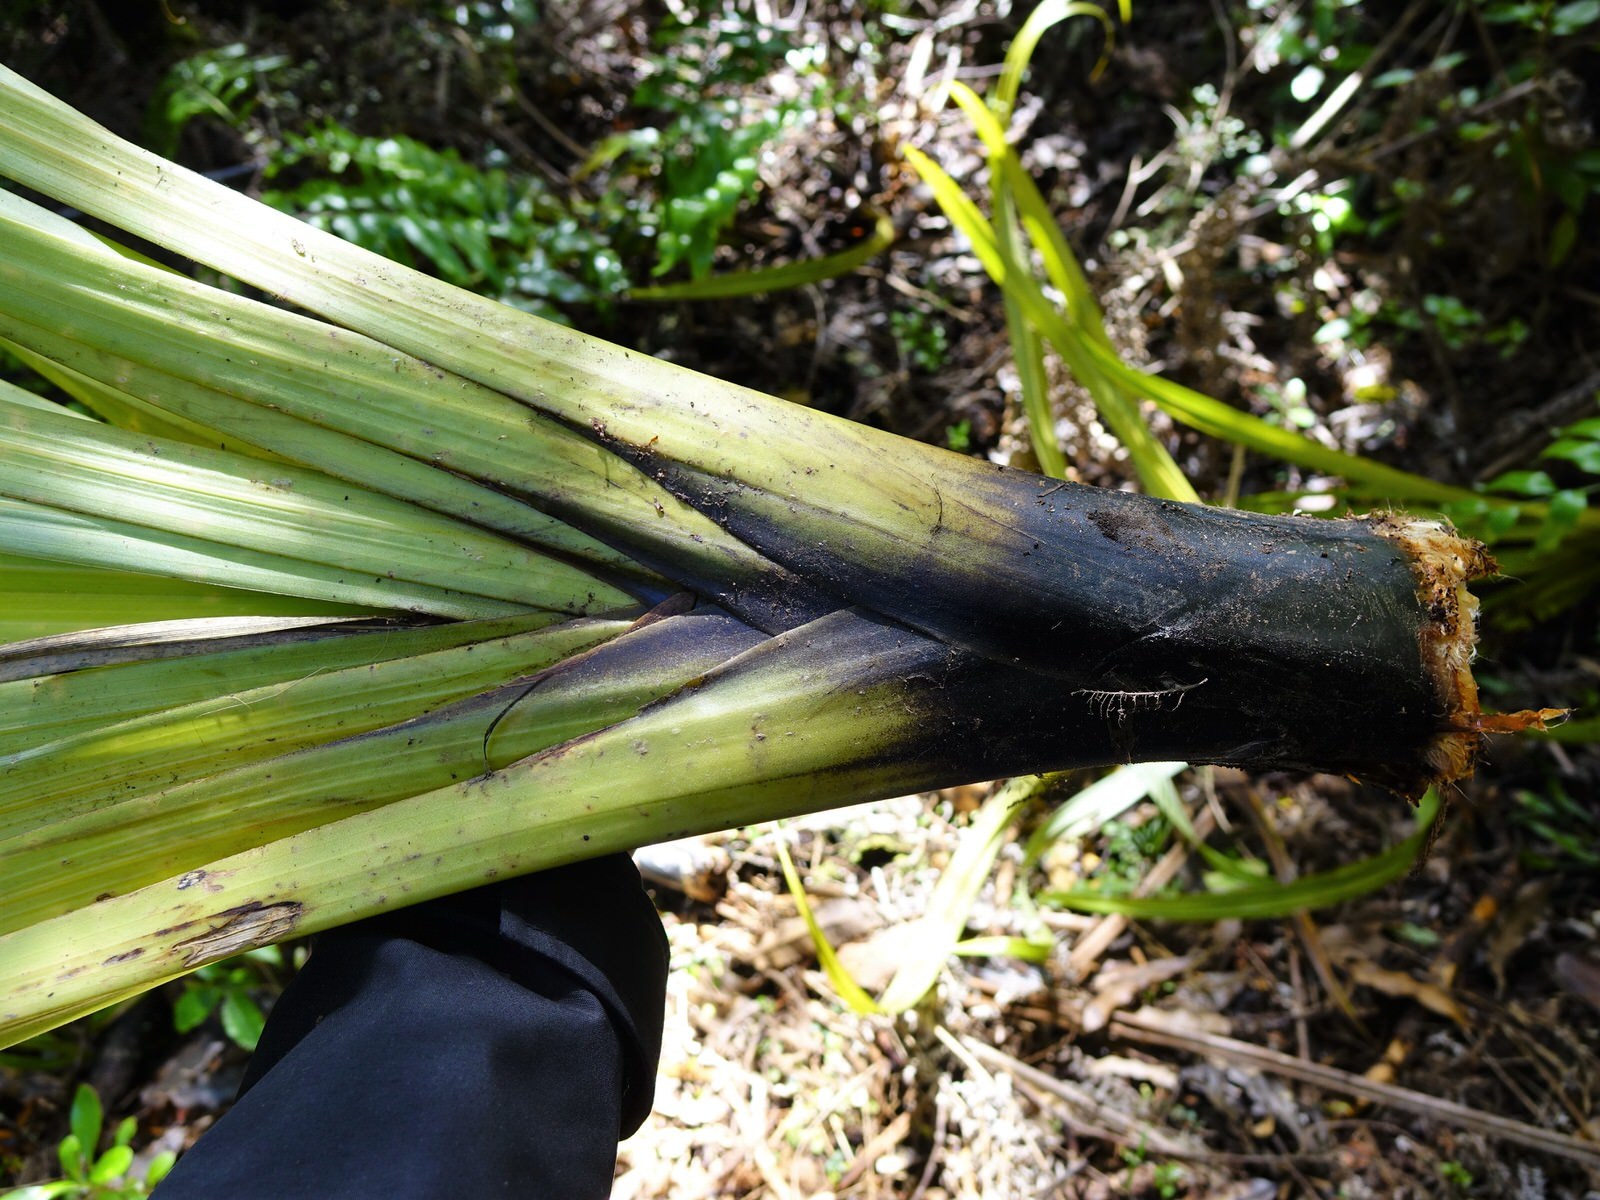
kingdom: Plantae
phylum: Tracheophyta
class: Liliopsida
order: Asparagales
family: Asteliaceae
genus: Astelia
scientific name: Astelia hastata
